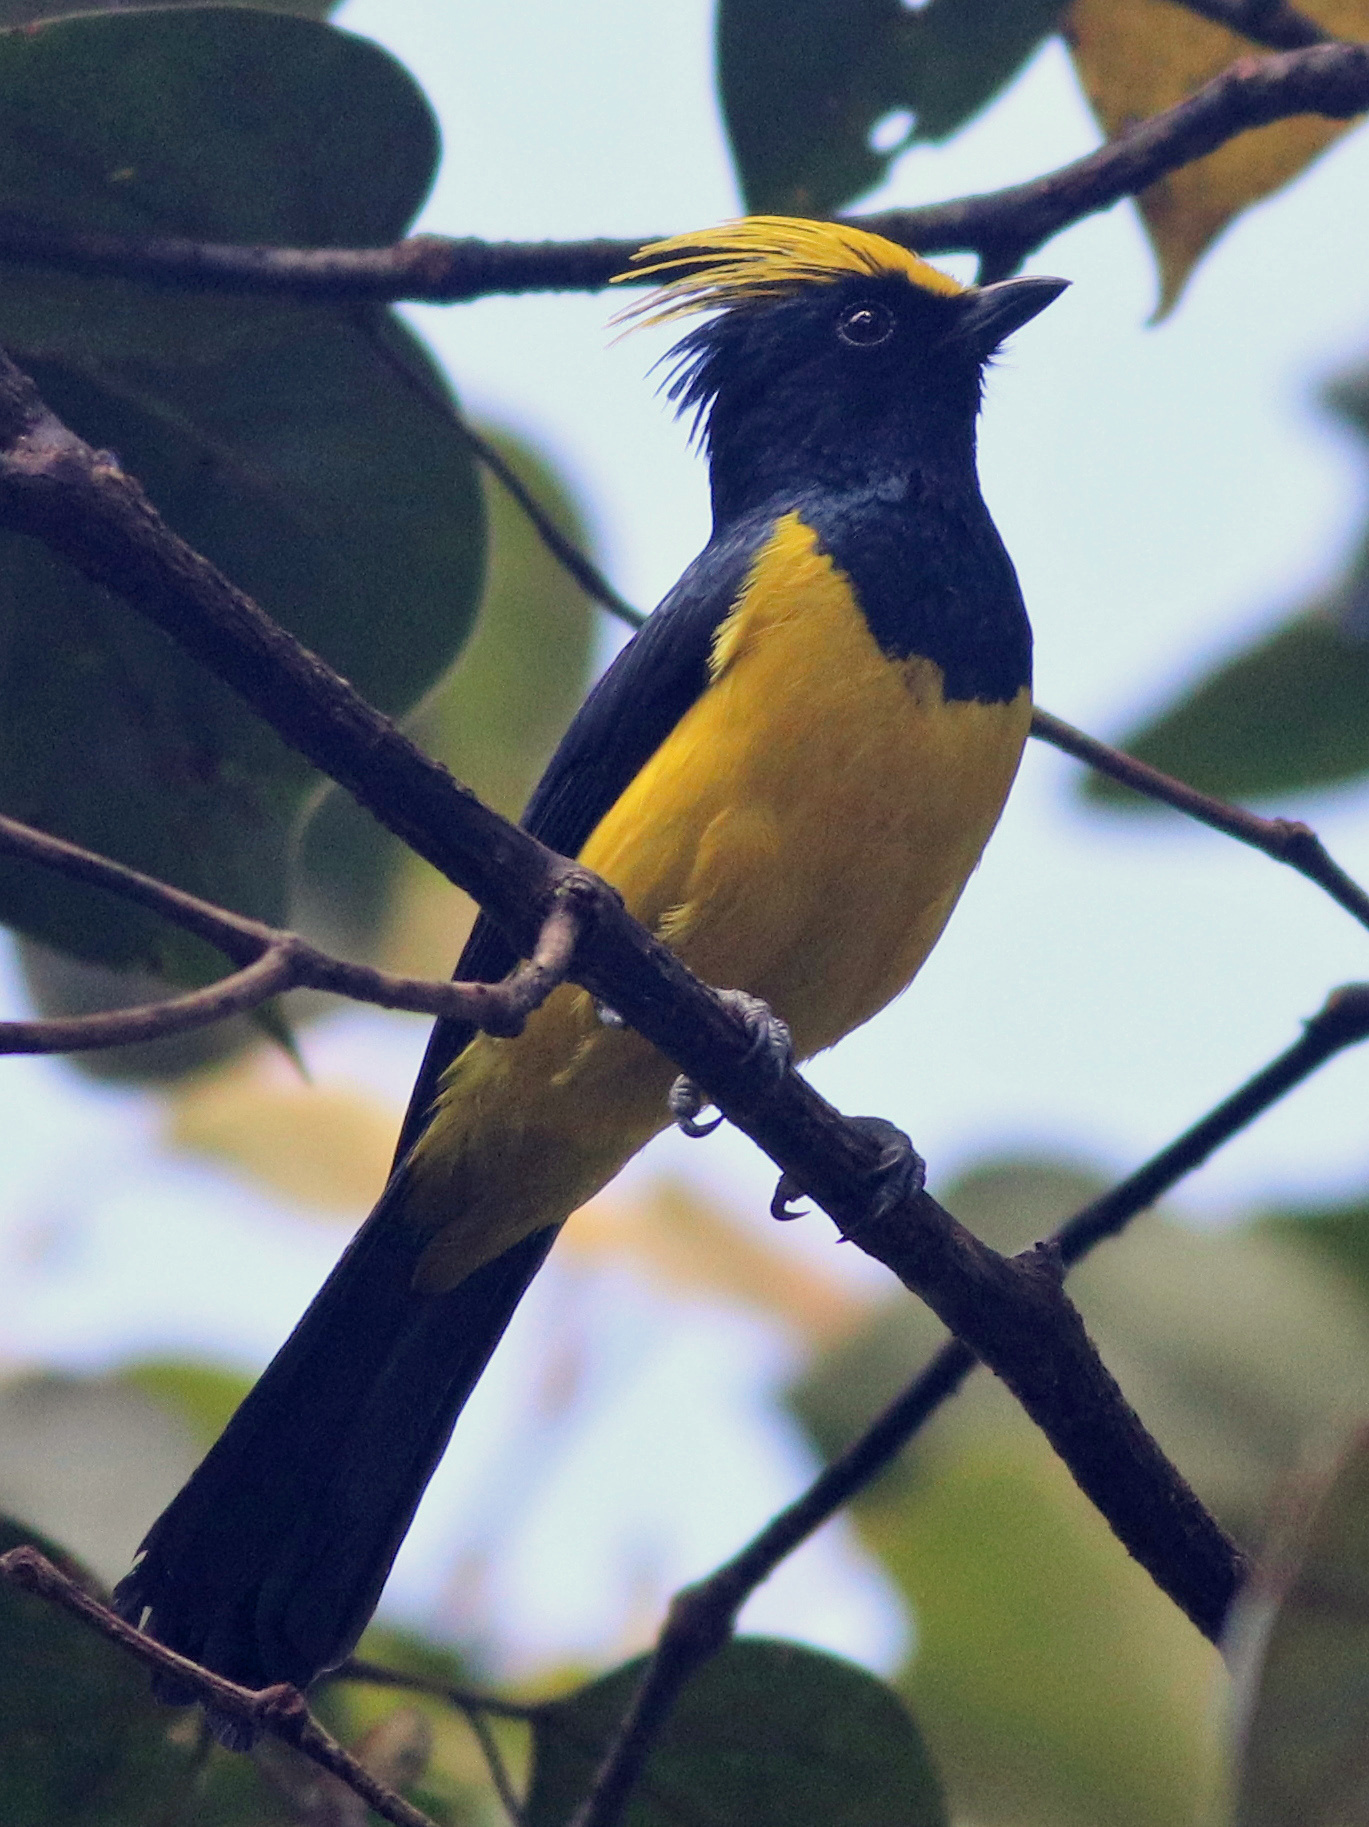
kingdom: Animalia
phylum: Chordata
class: Aves
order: Passeriformes
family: Paridae
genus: Melanochlora
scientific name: Melanochlora sultanea
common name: Sultan tit
